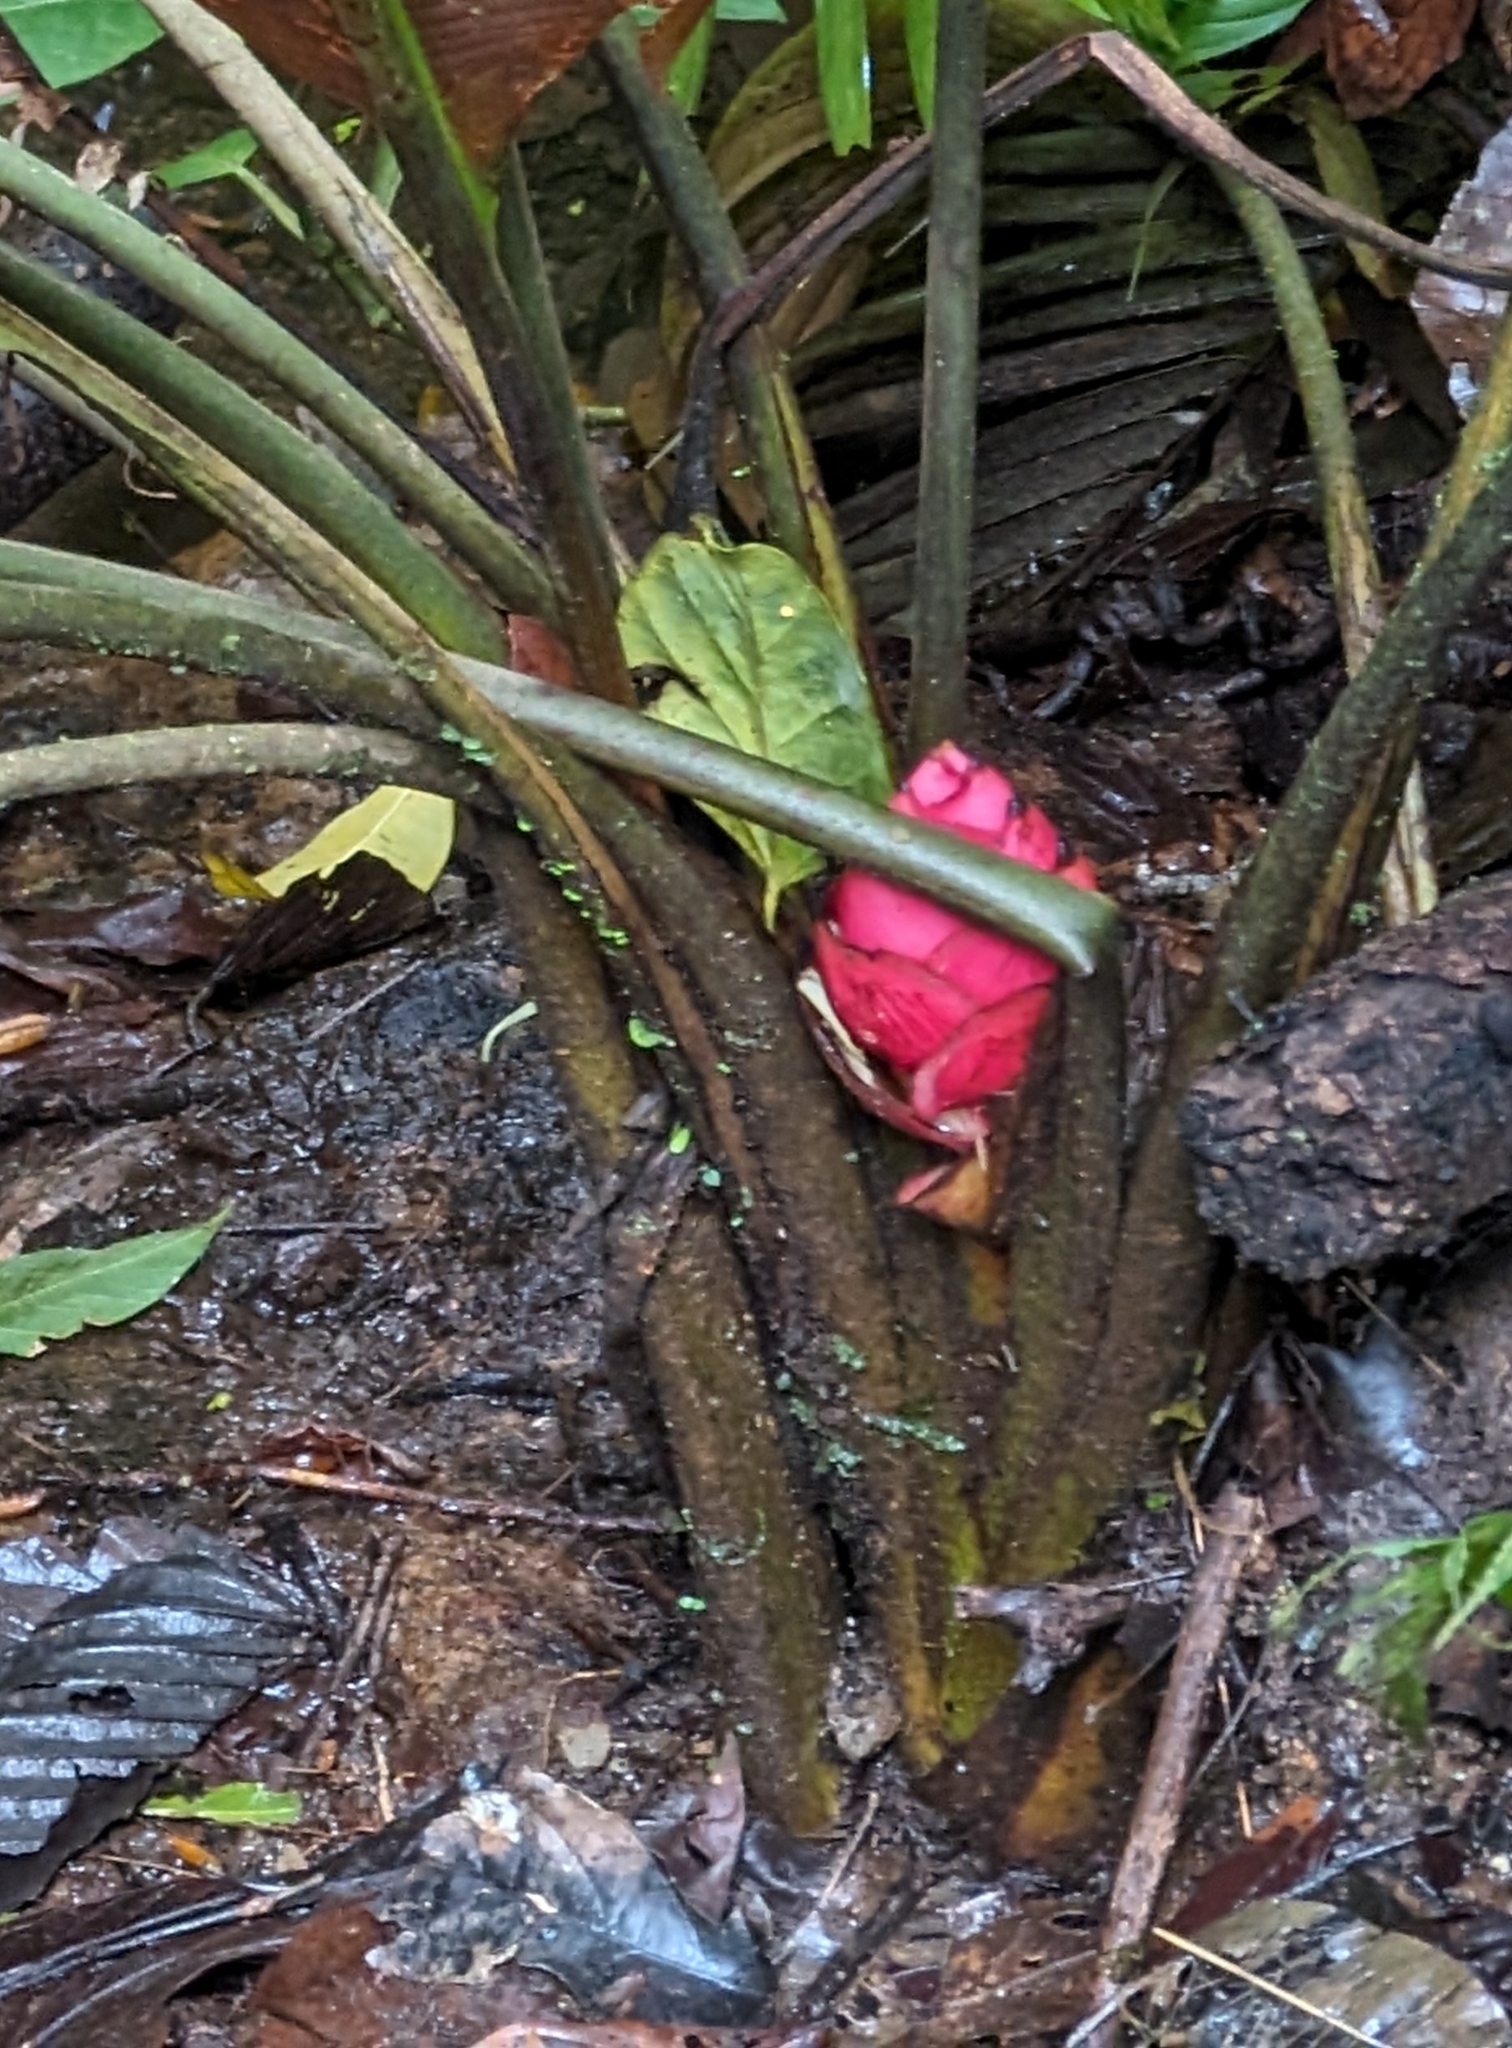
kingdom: Plantae
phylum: Tracheophyta
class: Liliopsida
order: Zingiberales
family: Heliconiaceae
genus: Heliconia
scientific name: Heliconia reticulata
